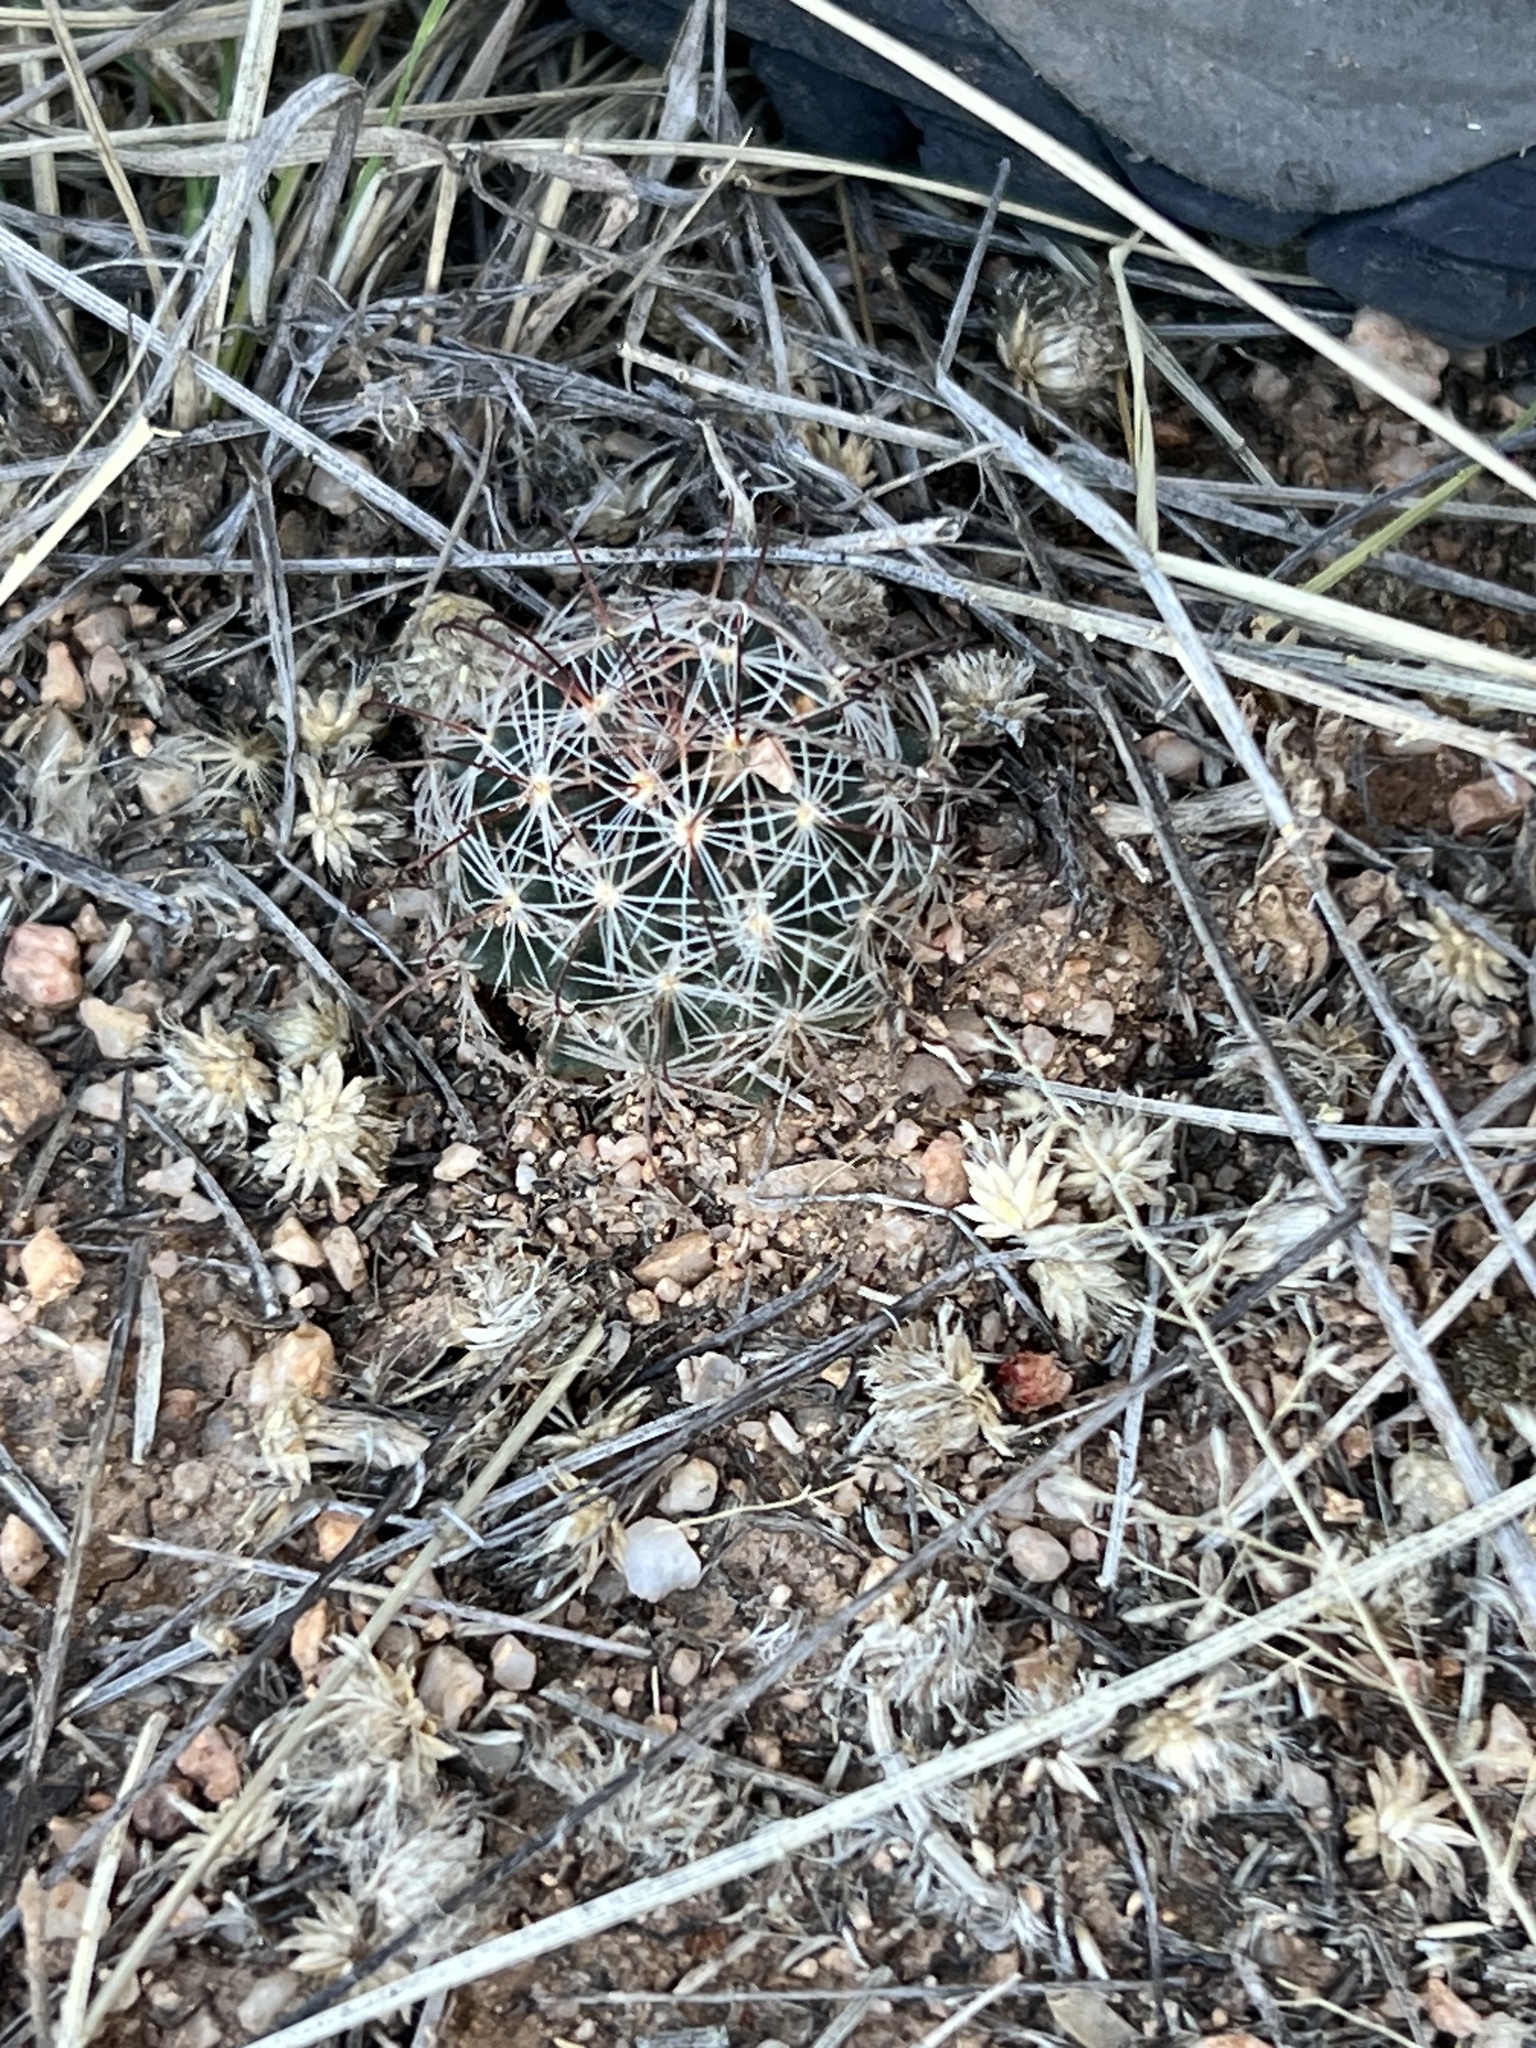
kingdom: Plantae
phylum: Tracheophyta
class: Magnoliopsida
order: Caryophyllales
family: Cactaceae
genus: Cochemiea
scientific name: Cochemiea wrightii
